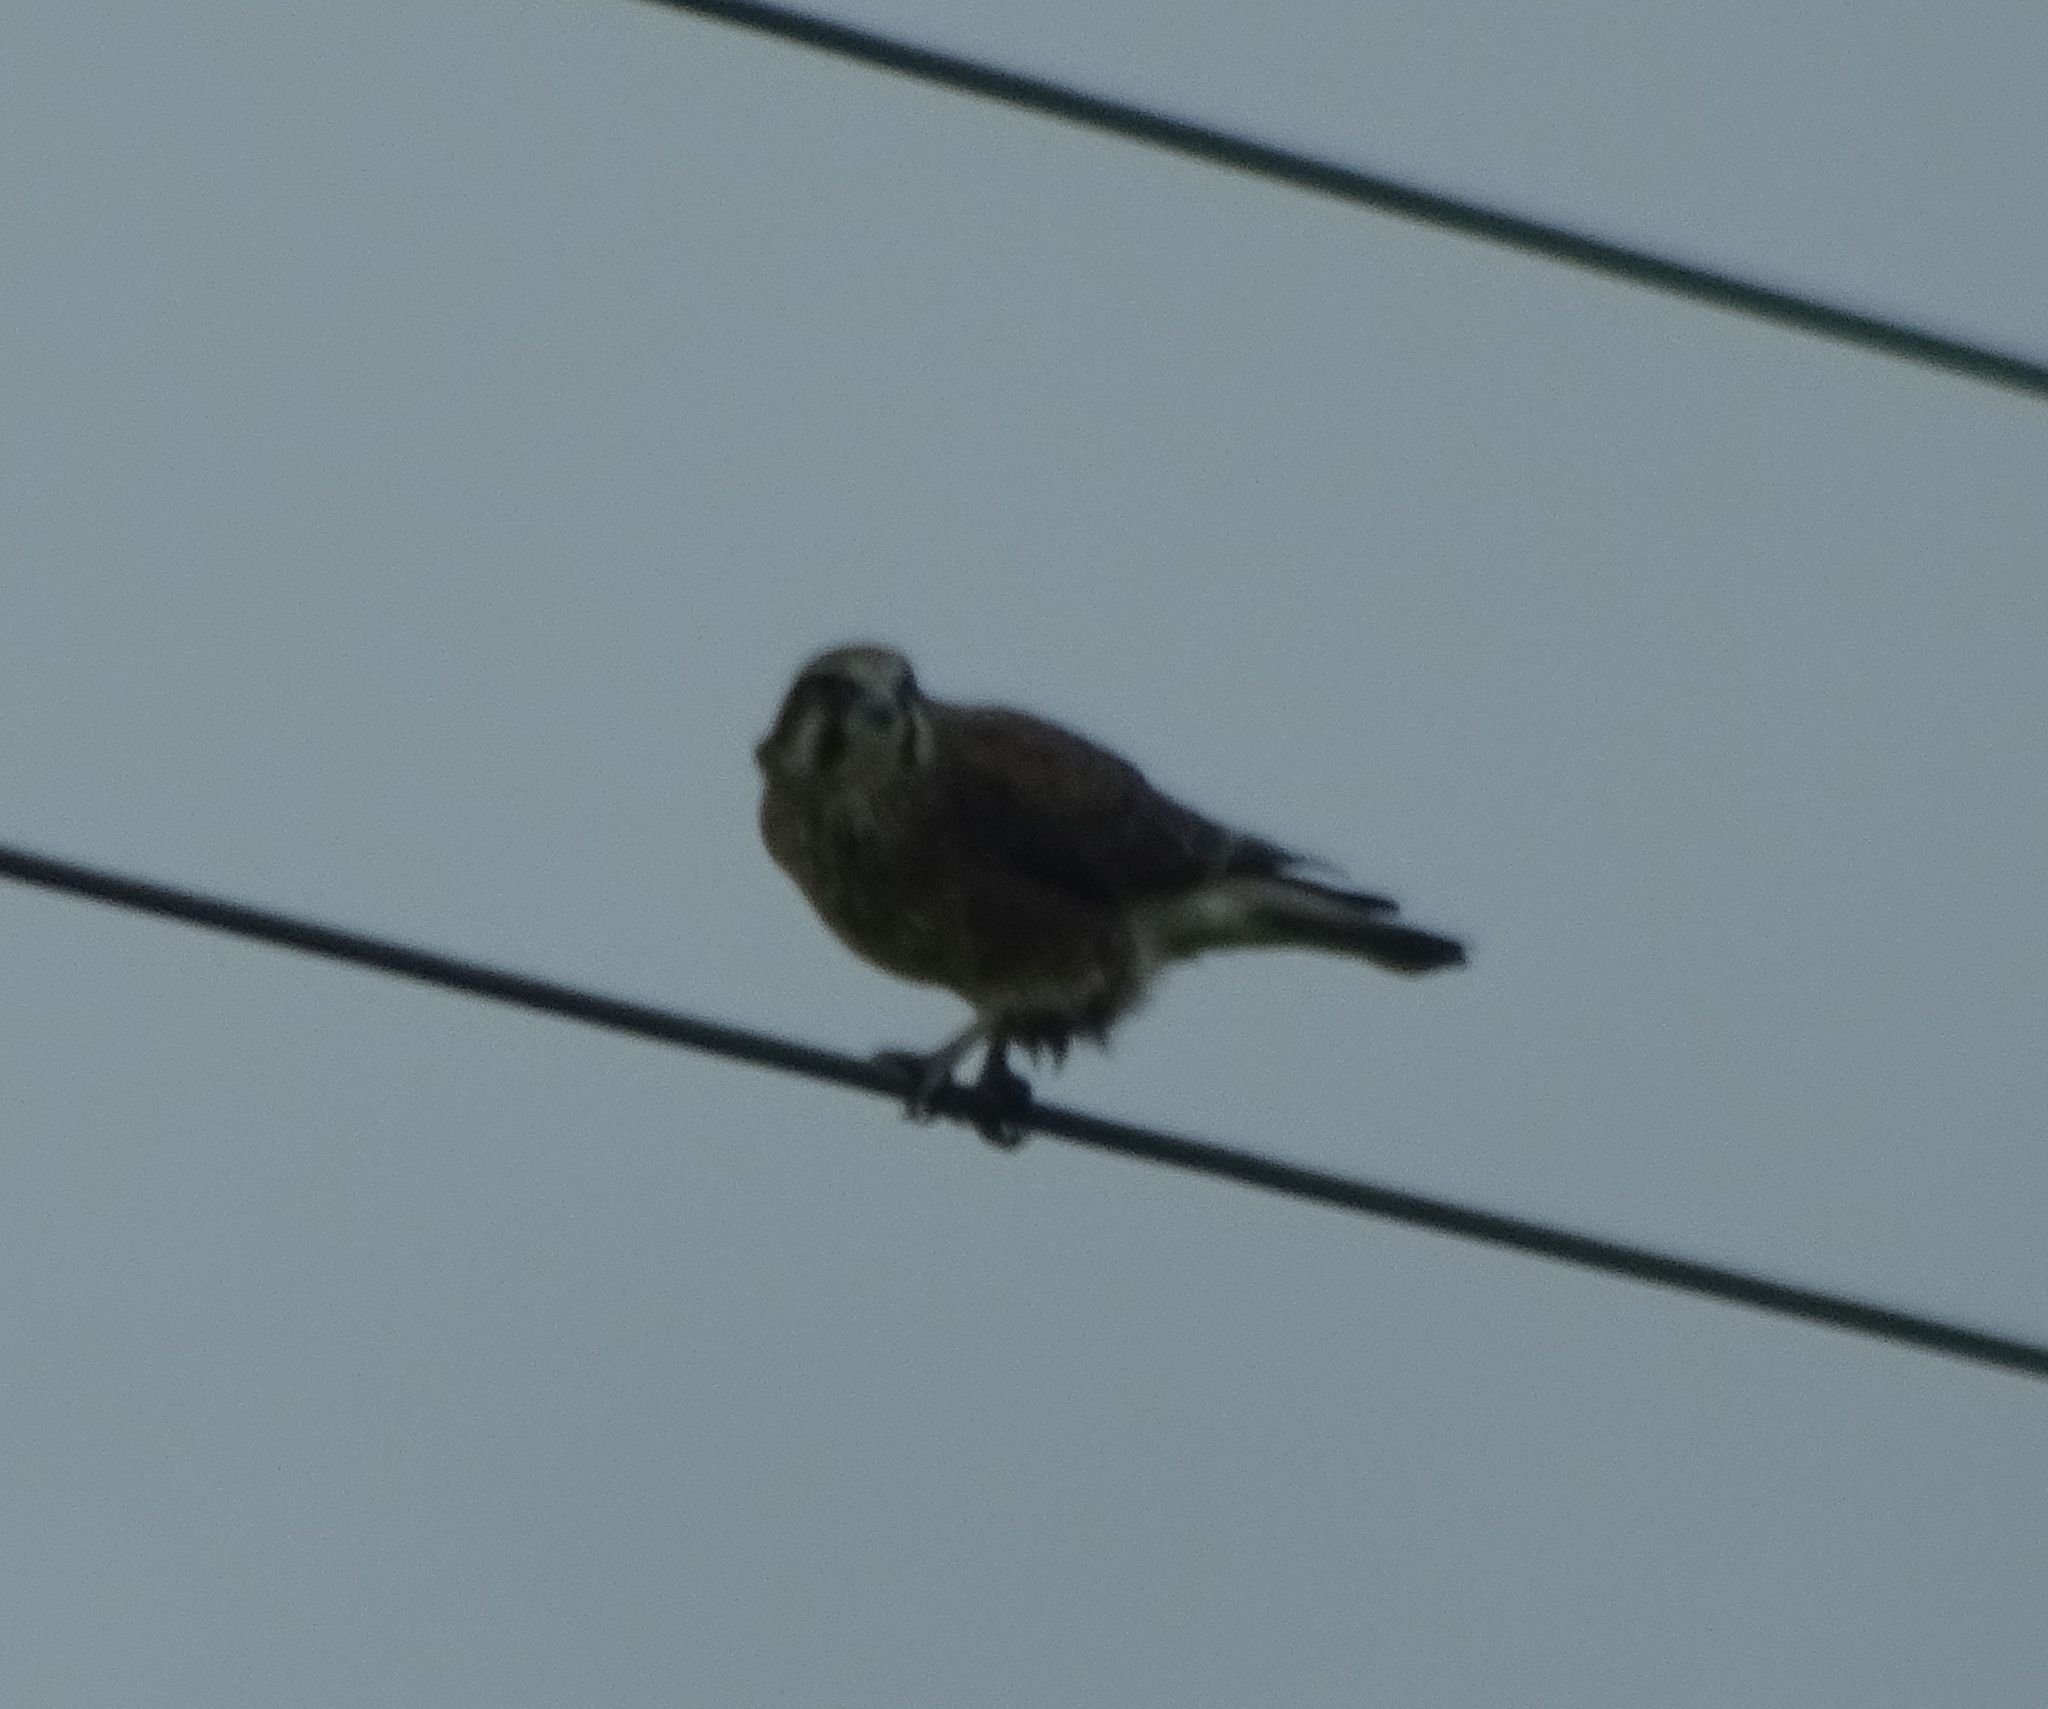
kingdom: Animalia
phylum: Chordata
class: Aves
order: Falconiformes
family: Falconidae
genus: Falco
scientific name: Falco berigora
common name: Brown falcon
